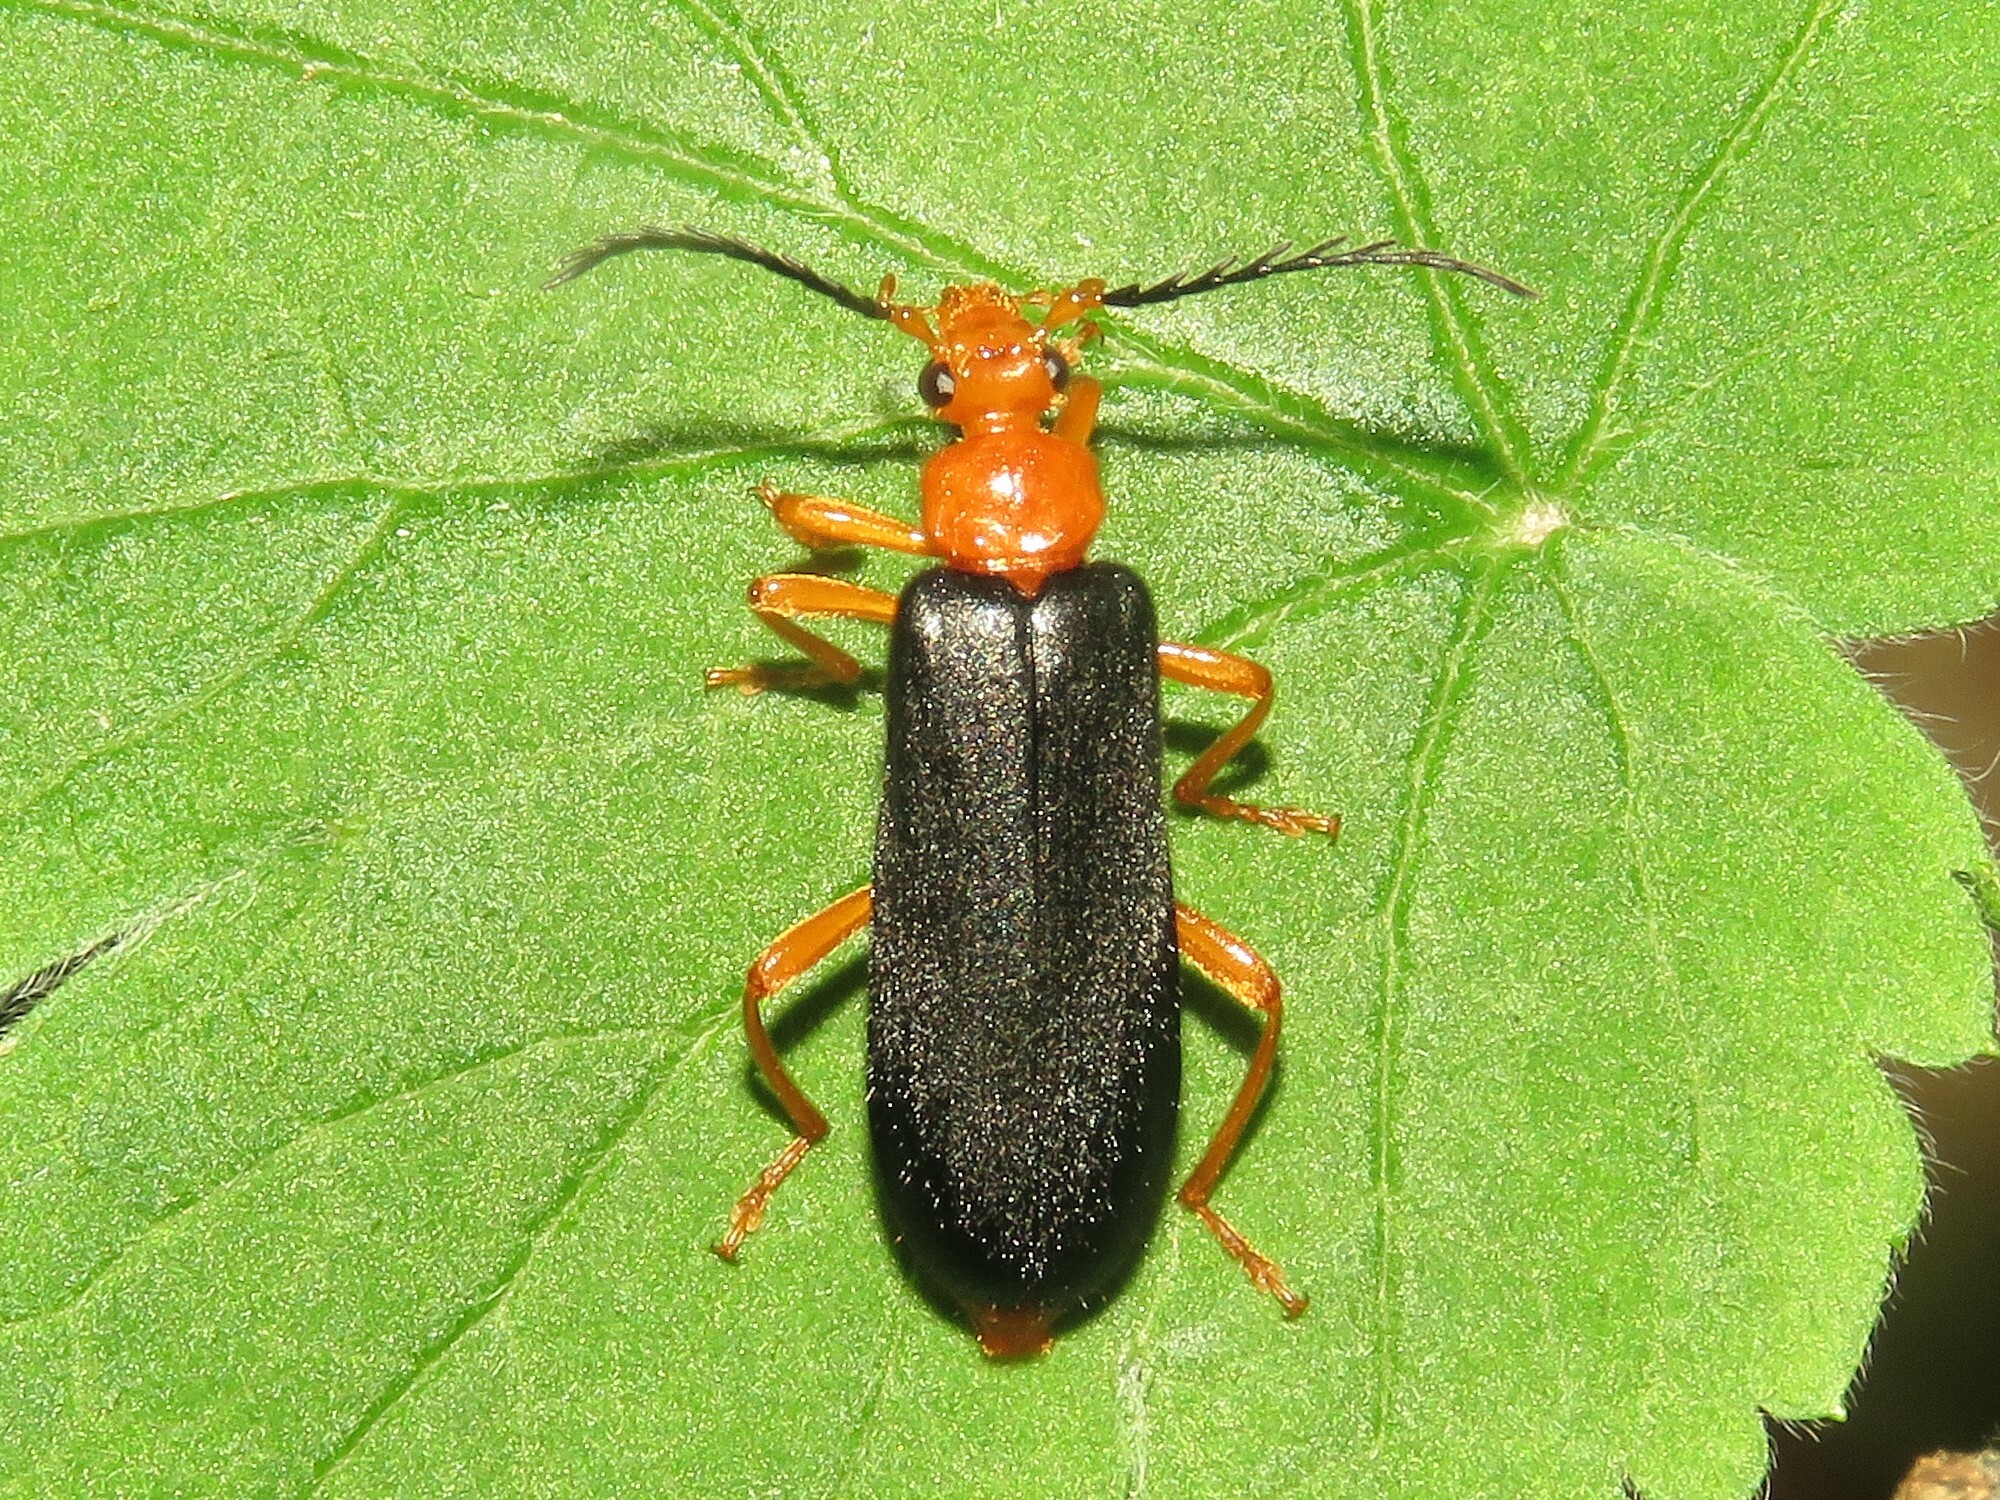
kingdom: Animalia
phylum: Arthropoda
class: Insecta
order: Coleoptera
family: Pyrochroidae
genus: Neopyrochroa
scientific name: Neopyrochroa flabellata
